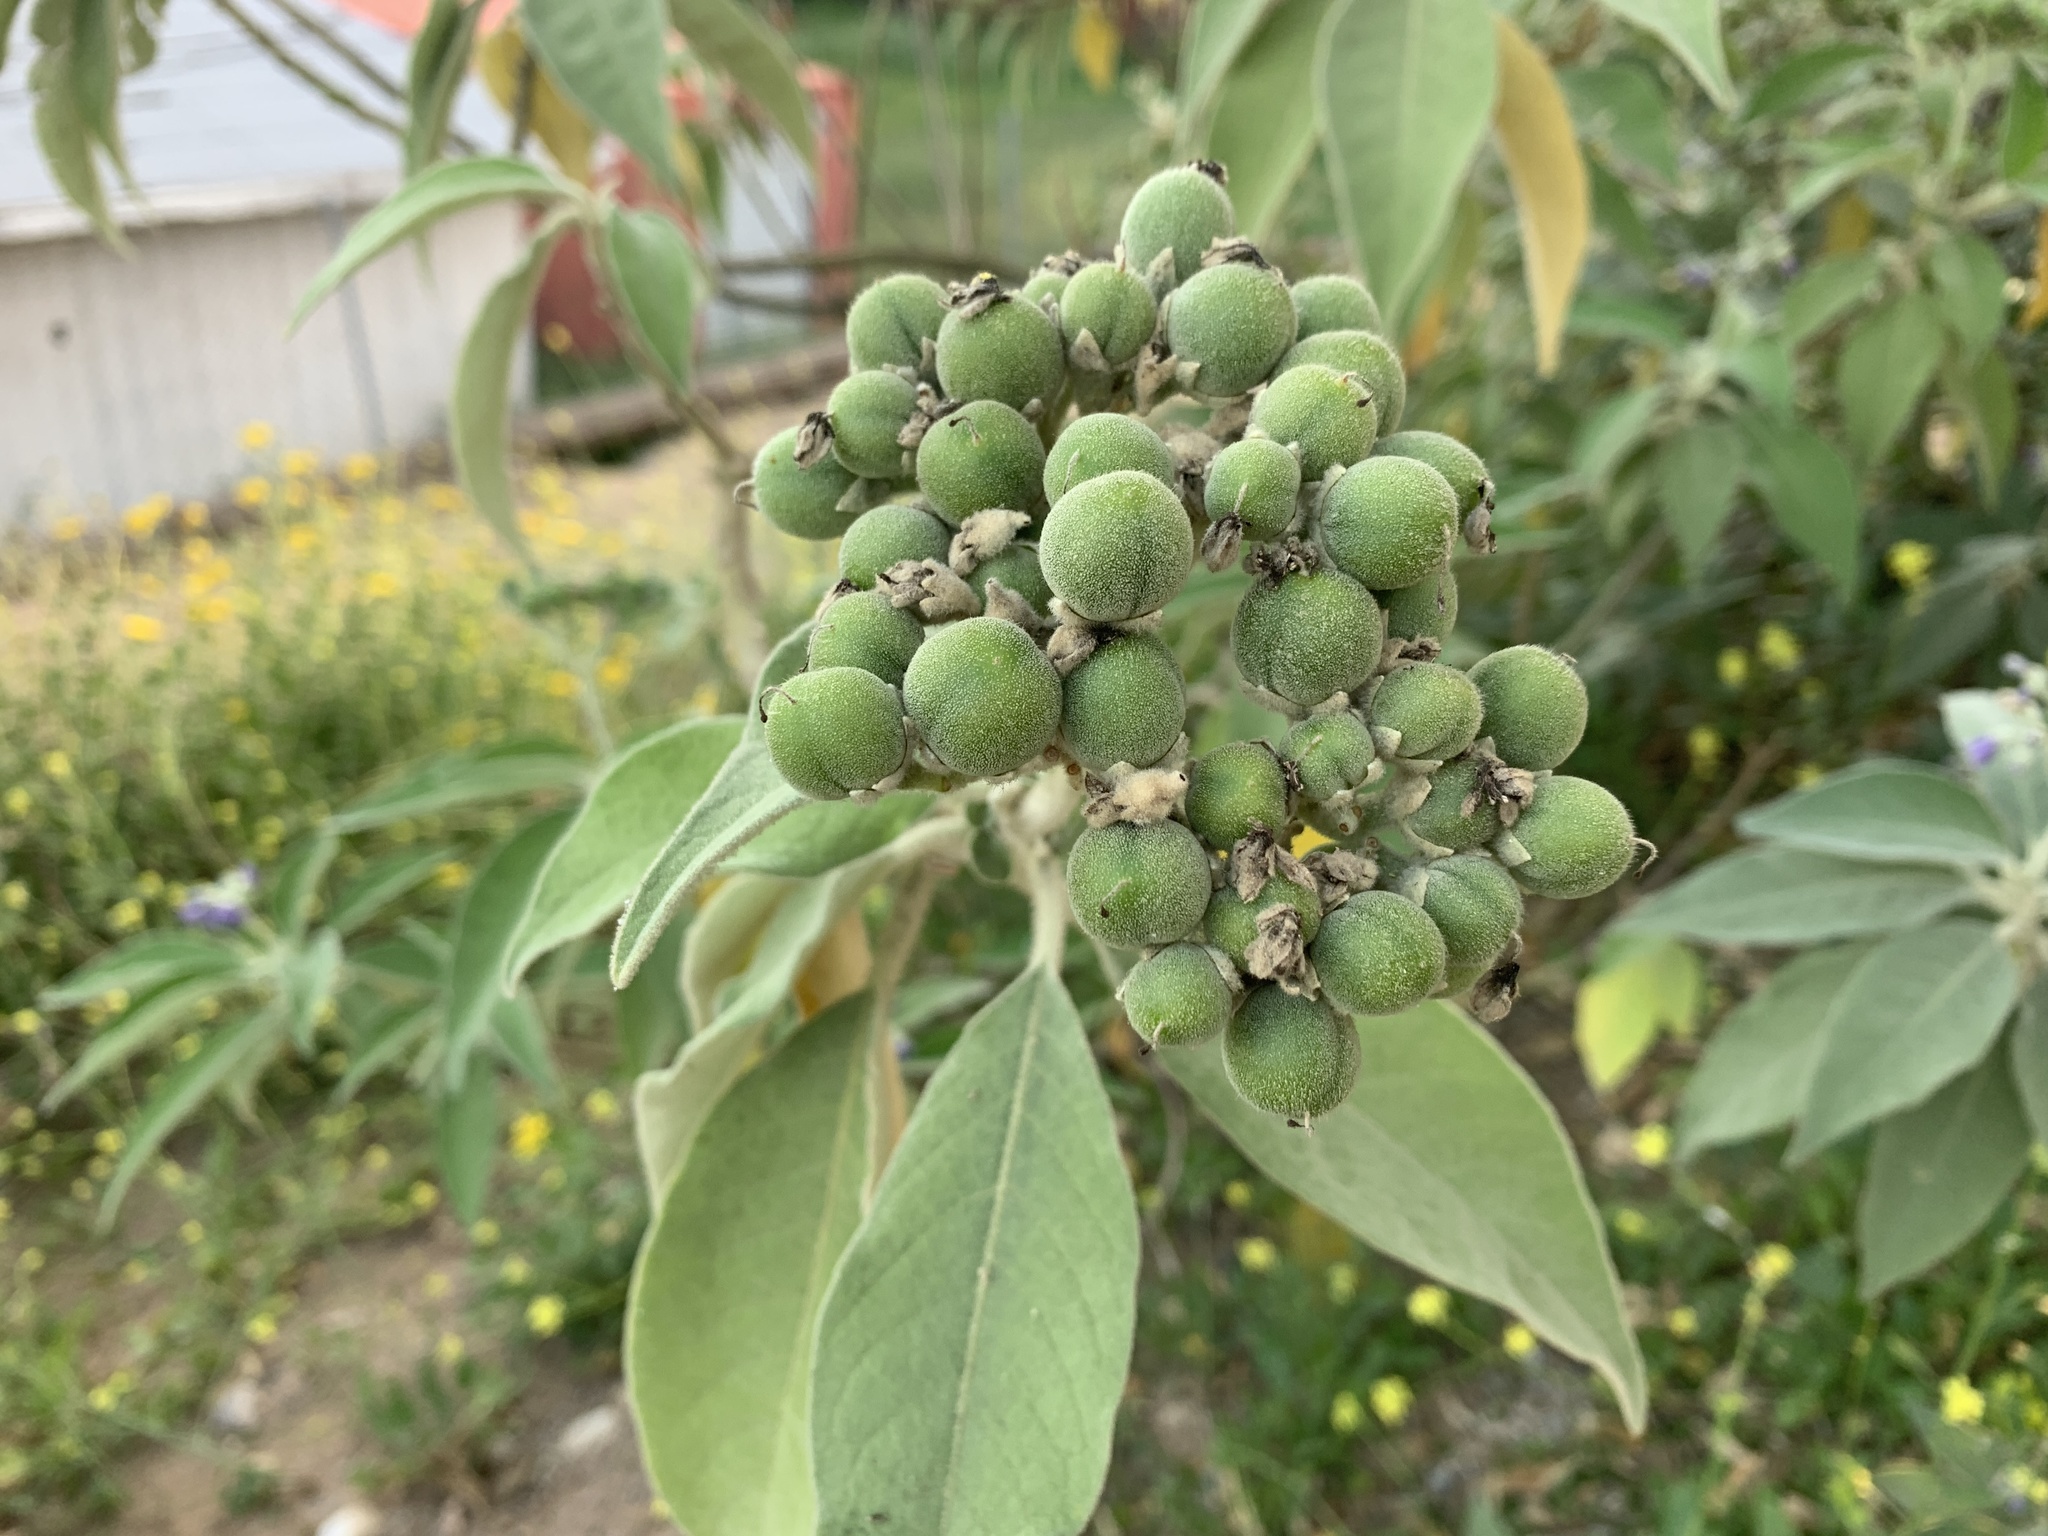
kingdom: Plantae
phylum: Tracheophyta
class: Magnoliopsida
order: Solanales
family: Solanaceae
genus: Solanum
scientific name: Solanum mauritianum
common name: Earleaf nightshade
